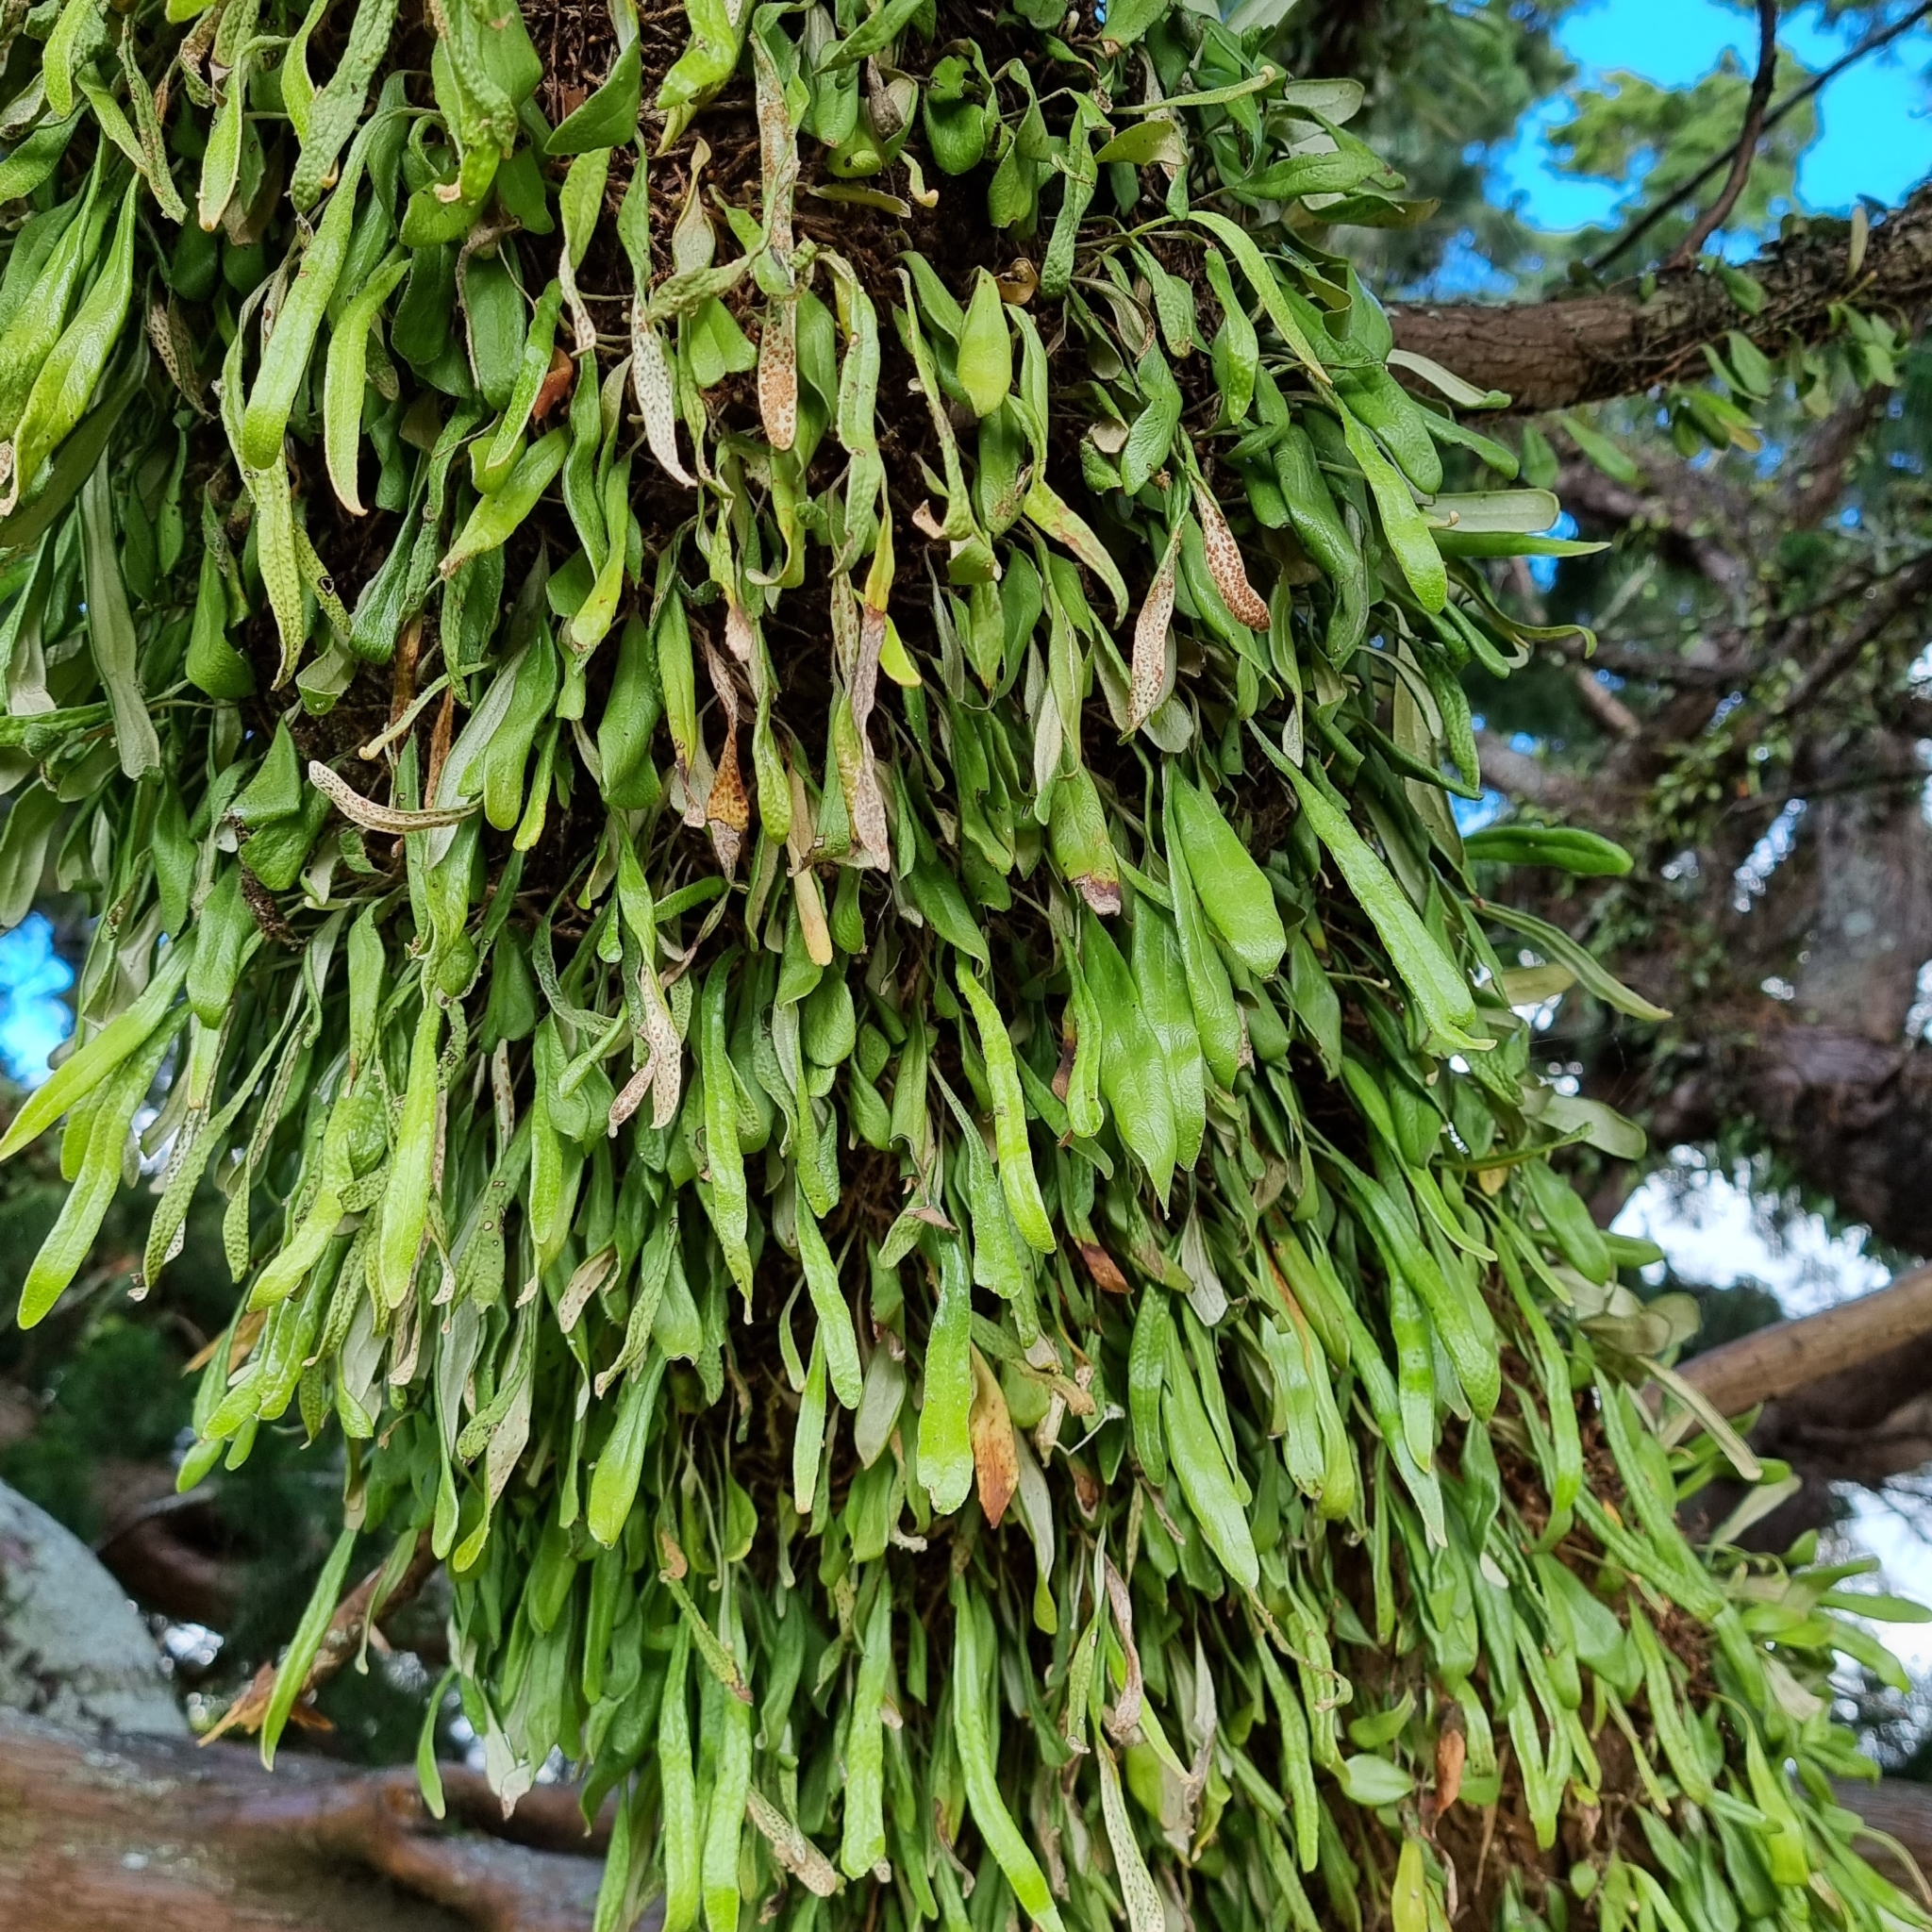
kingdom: Plantae
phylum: Tracheophyta
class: Polypodiopsida
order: Polypodiales
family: Polypodiaceae
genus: Pyrrosia
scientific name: Pyrrosia eleagnifolia
